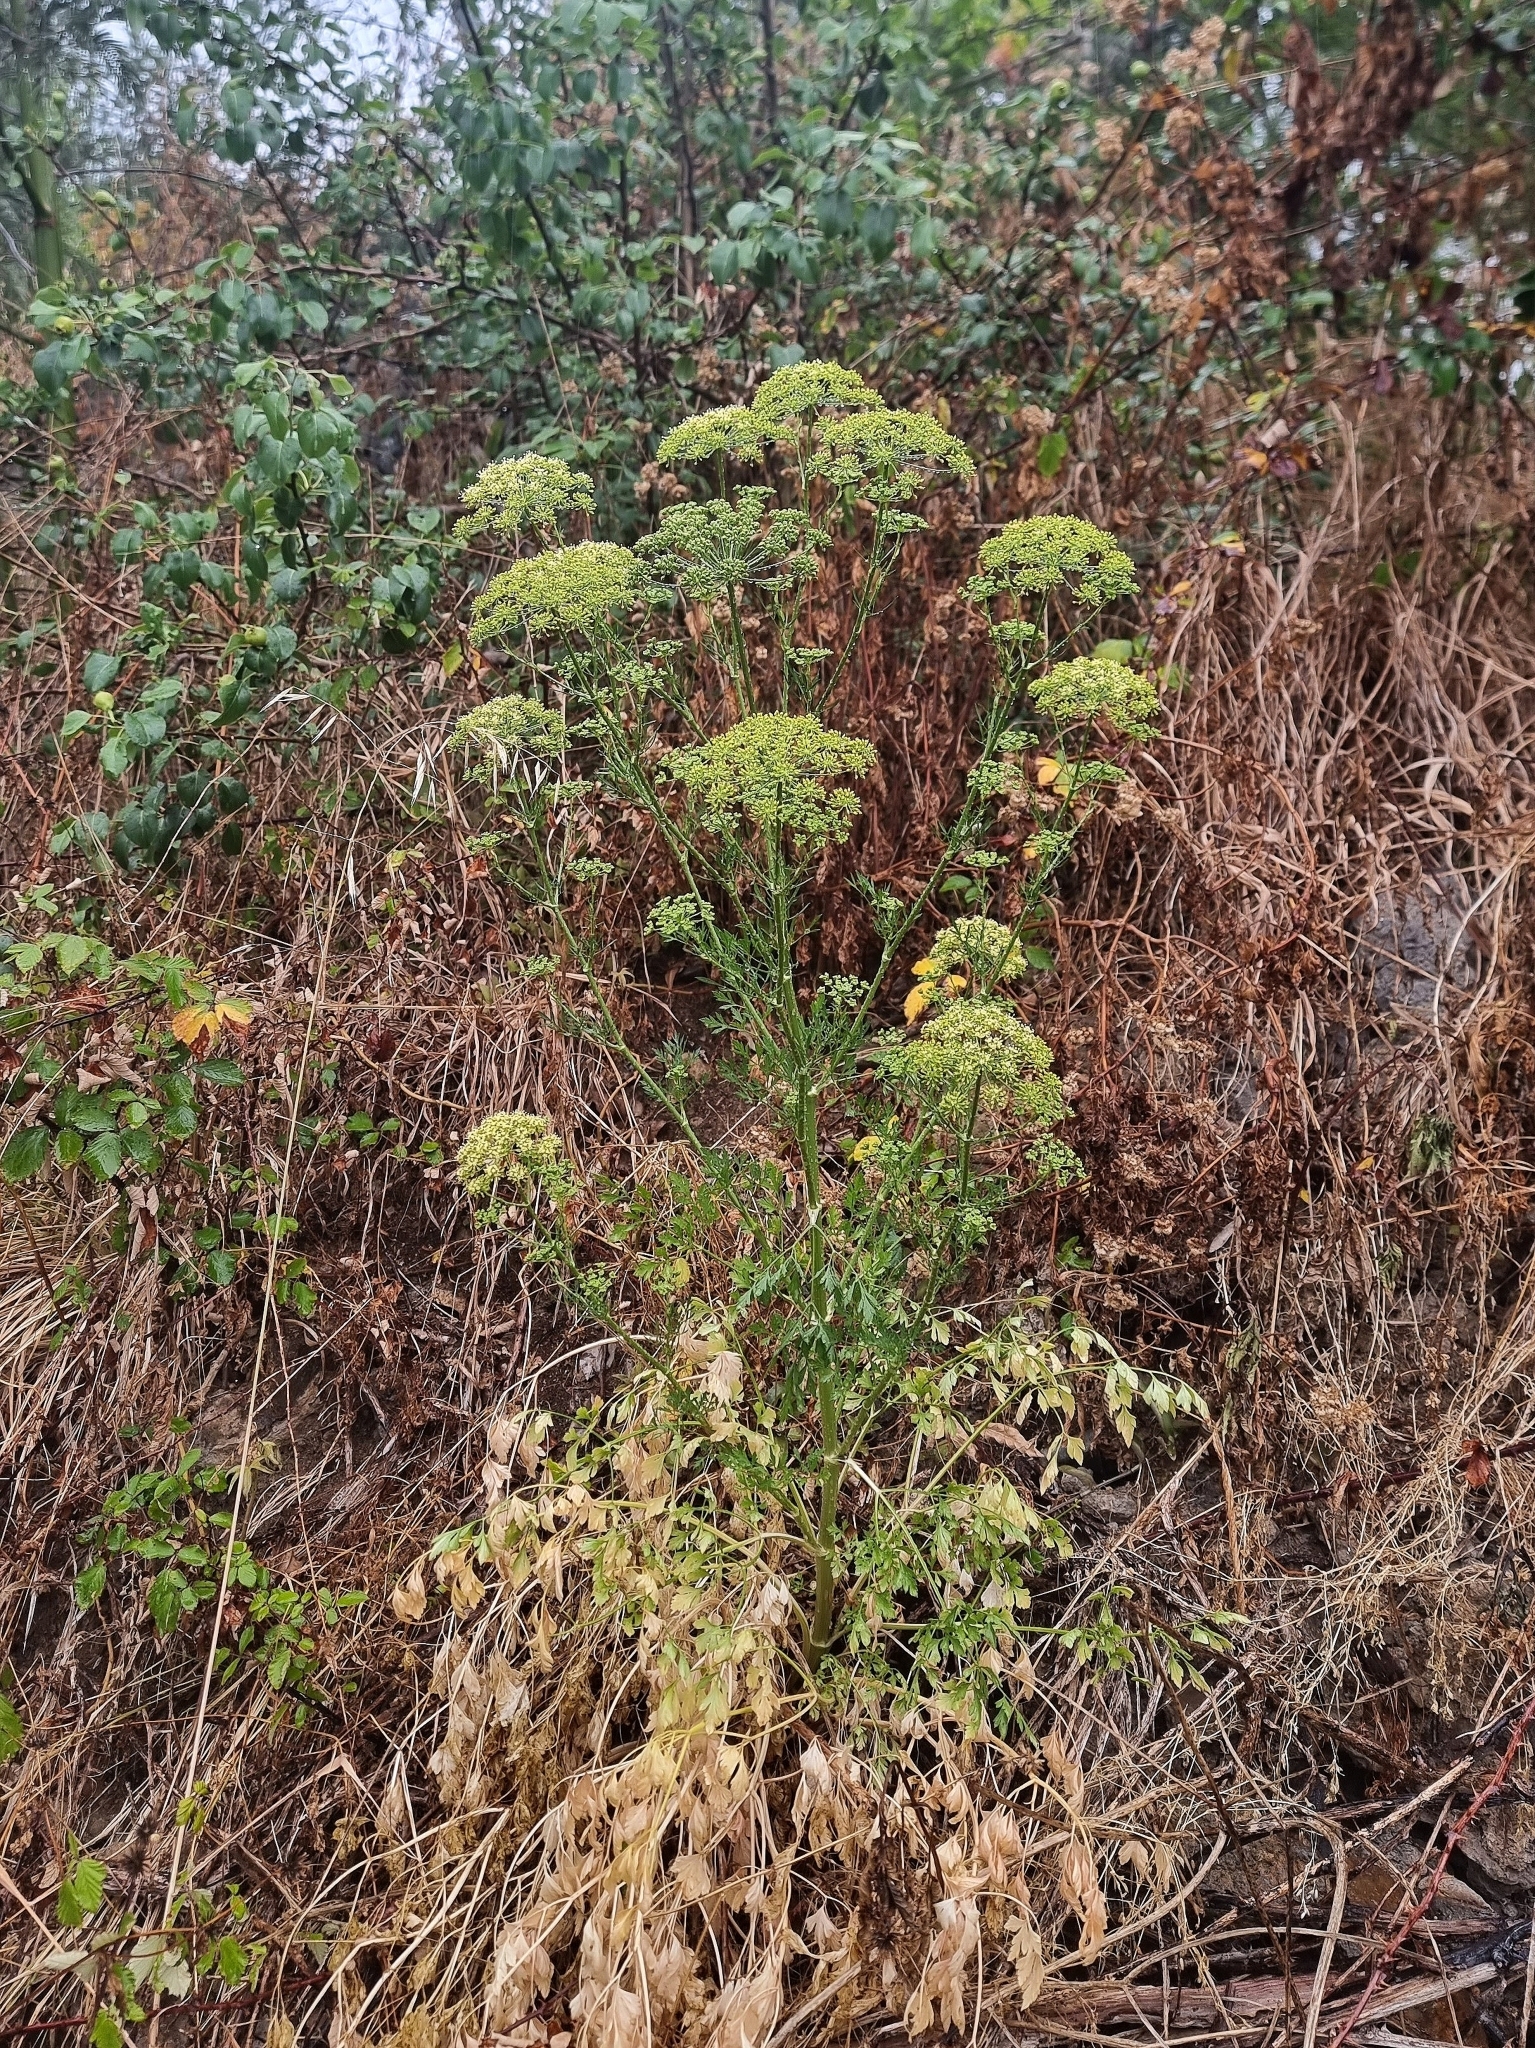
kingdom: Plantae
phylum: Tracheophyta
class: Magnoliopsida
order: Apiales
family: Apiaceae
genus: Petroselinum
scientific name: Petroselinum crispum
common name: Parsley
